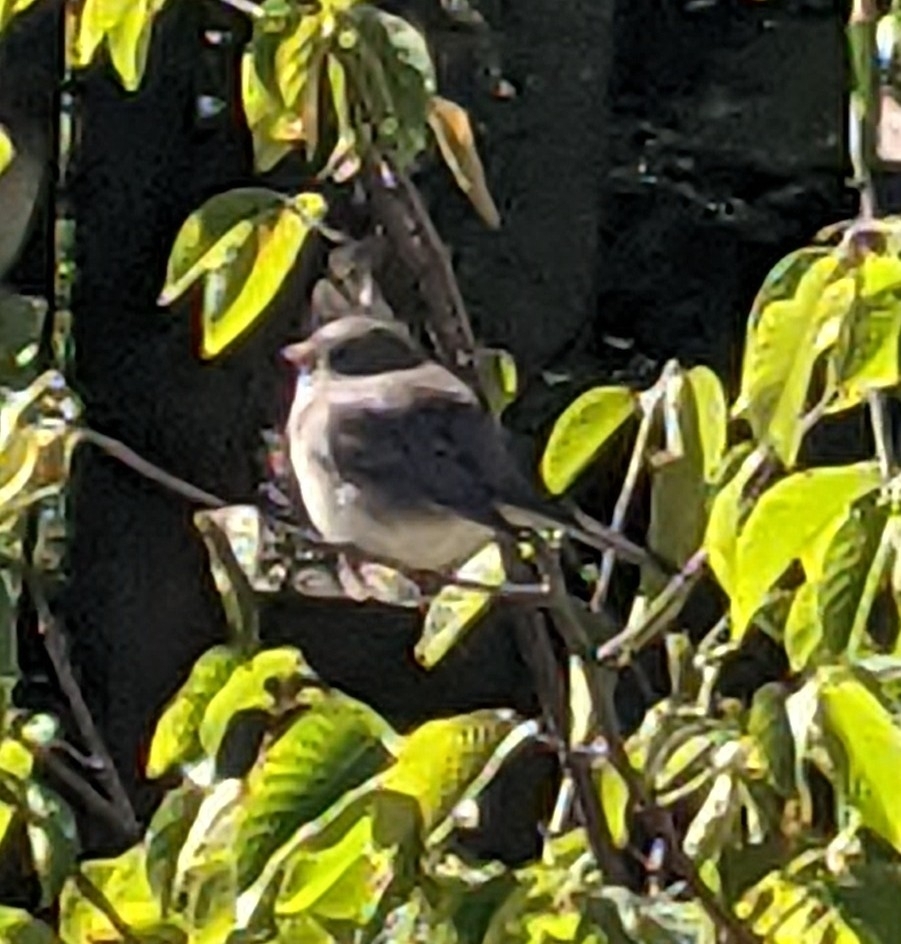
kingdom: Animalia
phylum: Chordata
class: Aves
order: Passeriformes
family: Passerellidae
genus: Junco
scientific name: Junco hyemalis
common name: Dark-eyed junco
